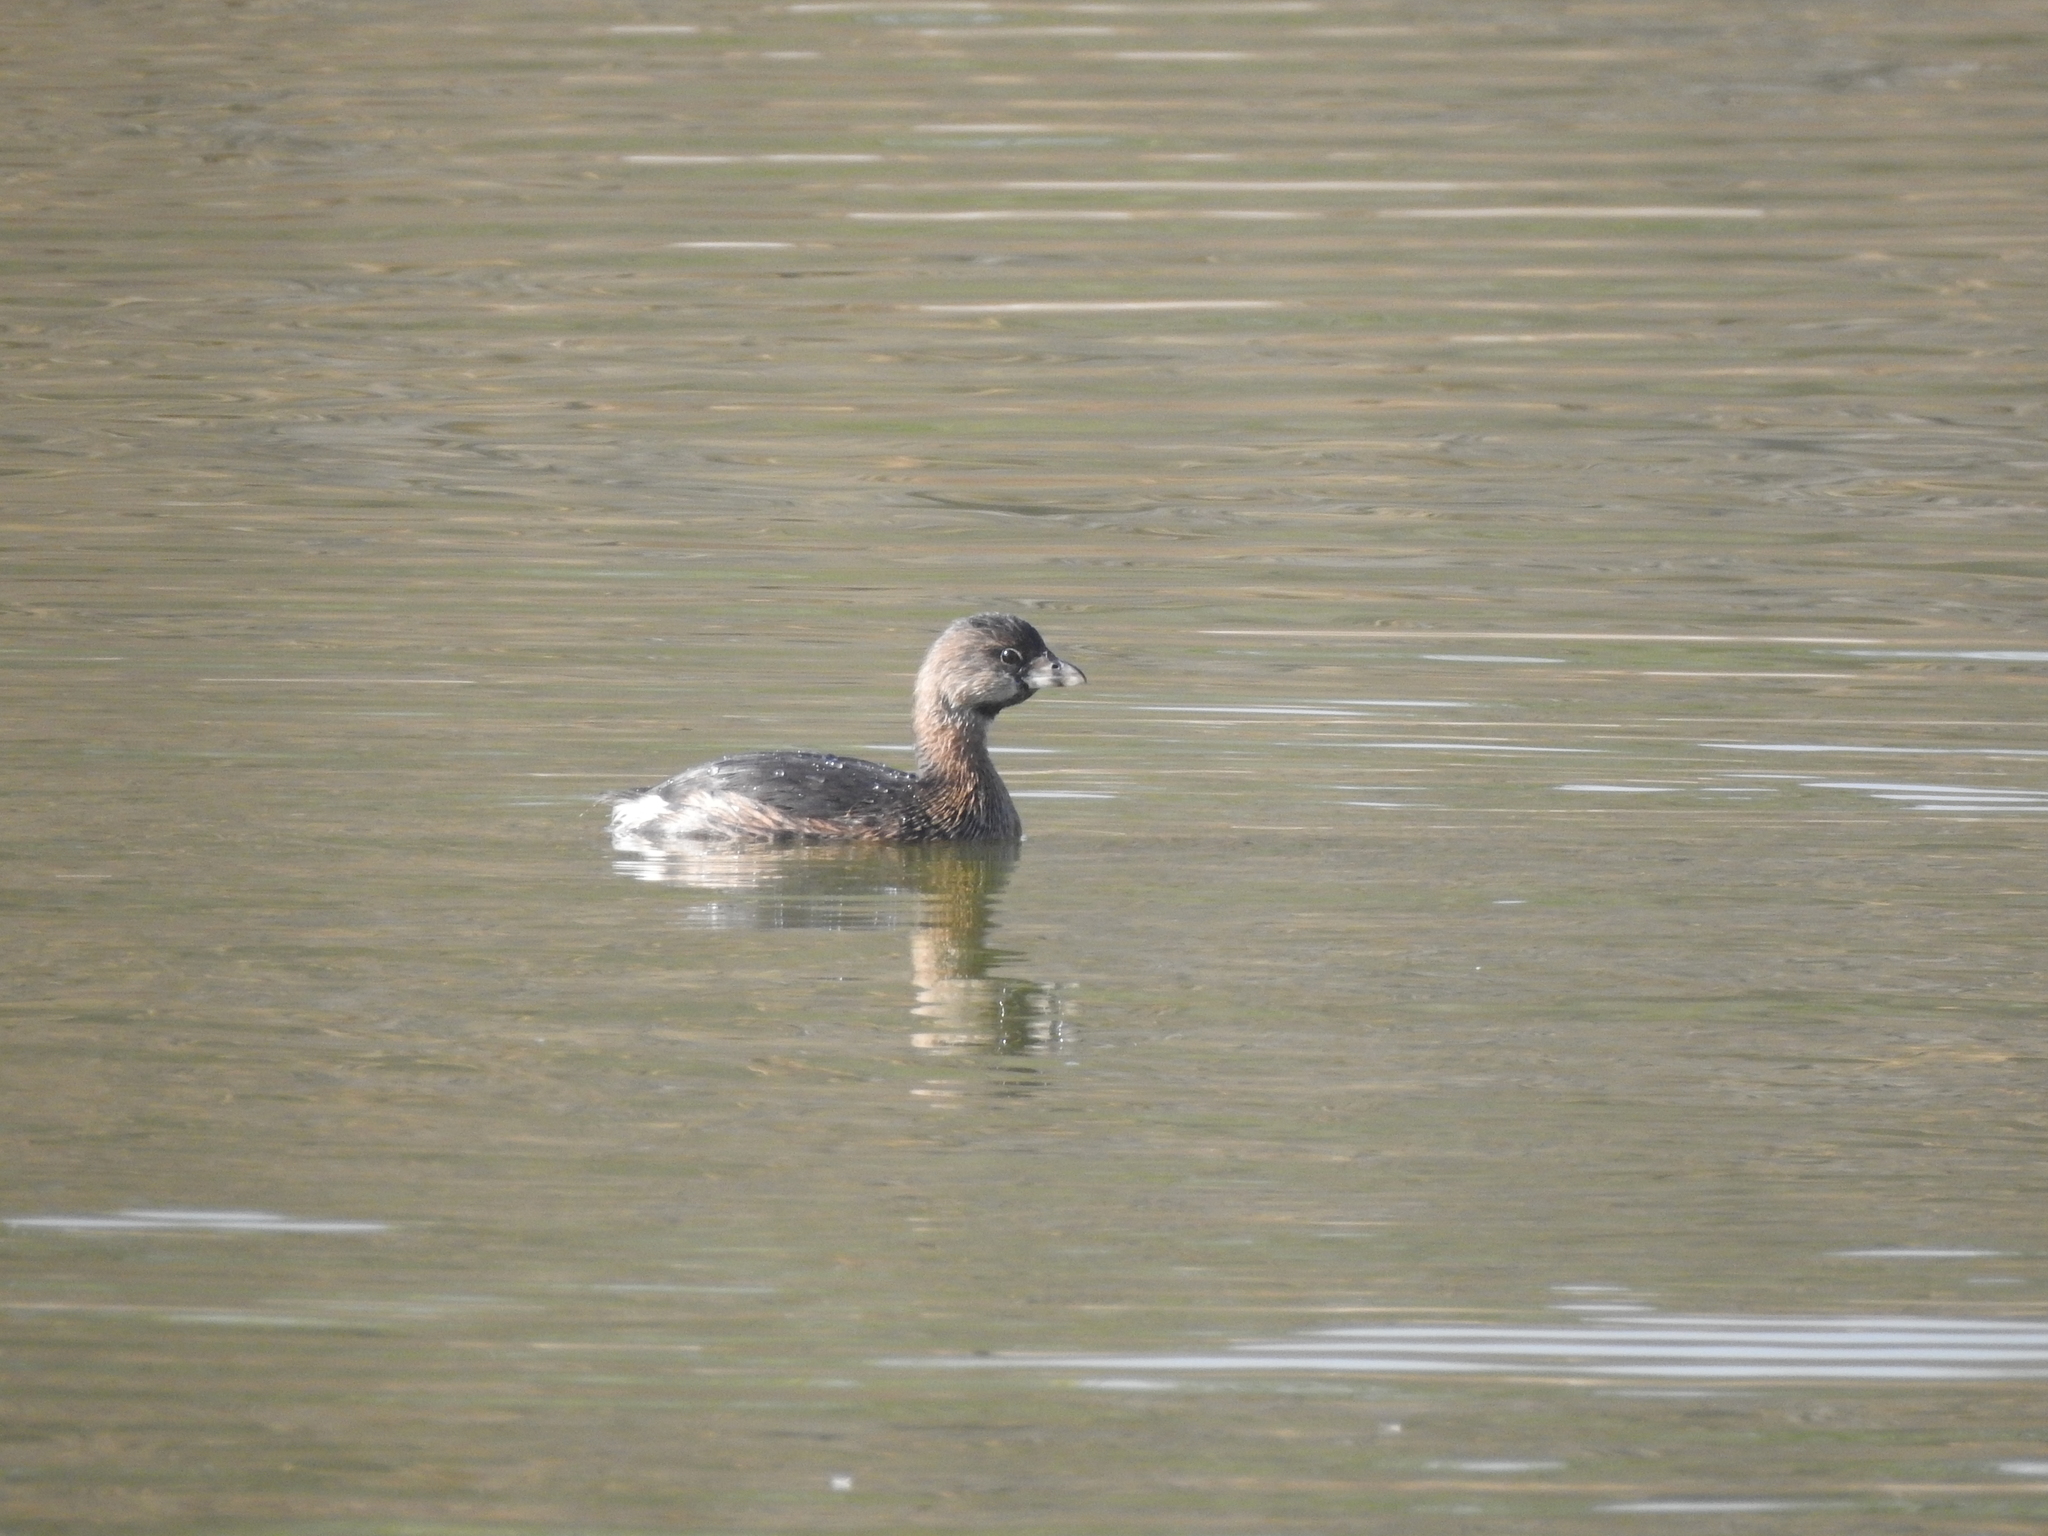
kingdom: Animalia
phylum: Chordata
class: Aves
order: Podicipediformes
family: Podicipedidae
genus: Podilymbus
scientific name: Podilymbus podiceps
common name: Pied-billed grebe
